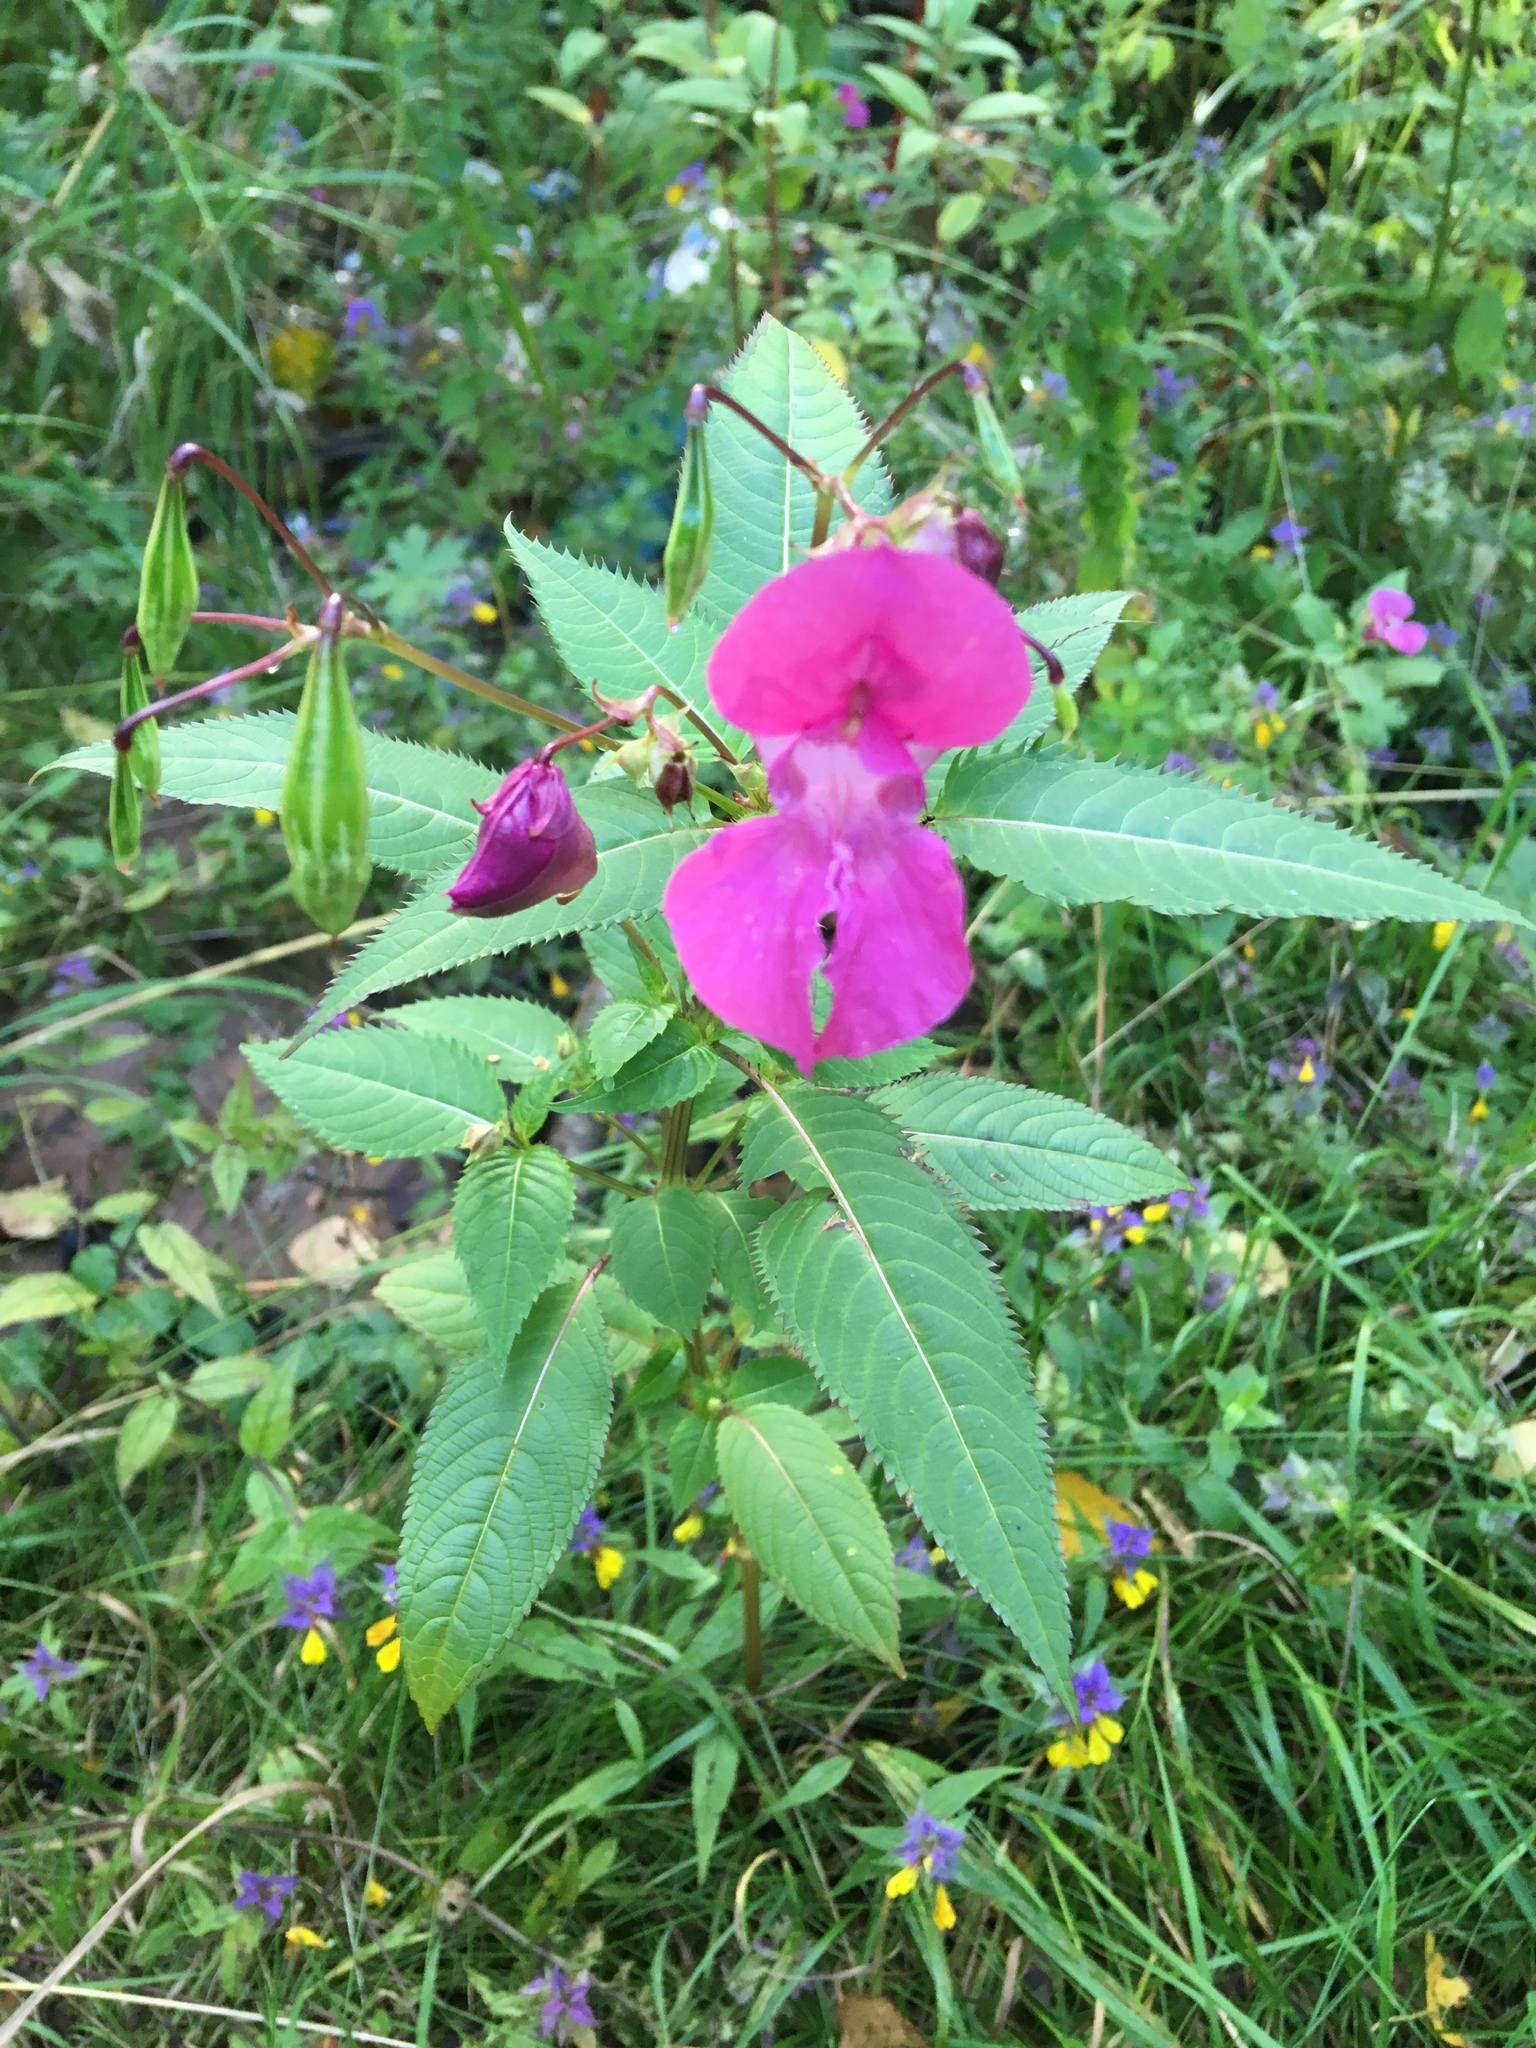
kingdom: Plantae
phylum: Tracheophyta
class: Magnoliopsida
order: Ericales
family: Balsaminaceae
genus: Impatiens
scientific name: Impatiens glandulifera
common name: Himalayan balsam
